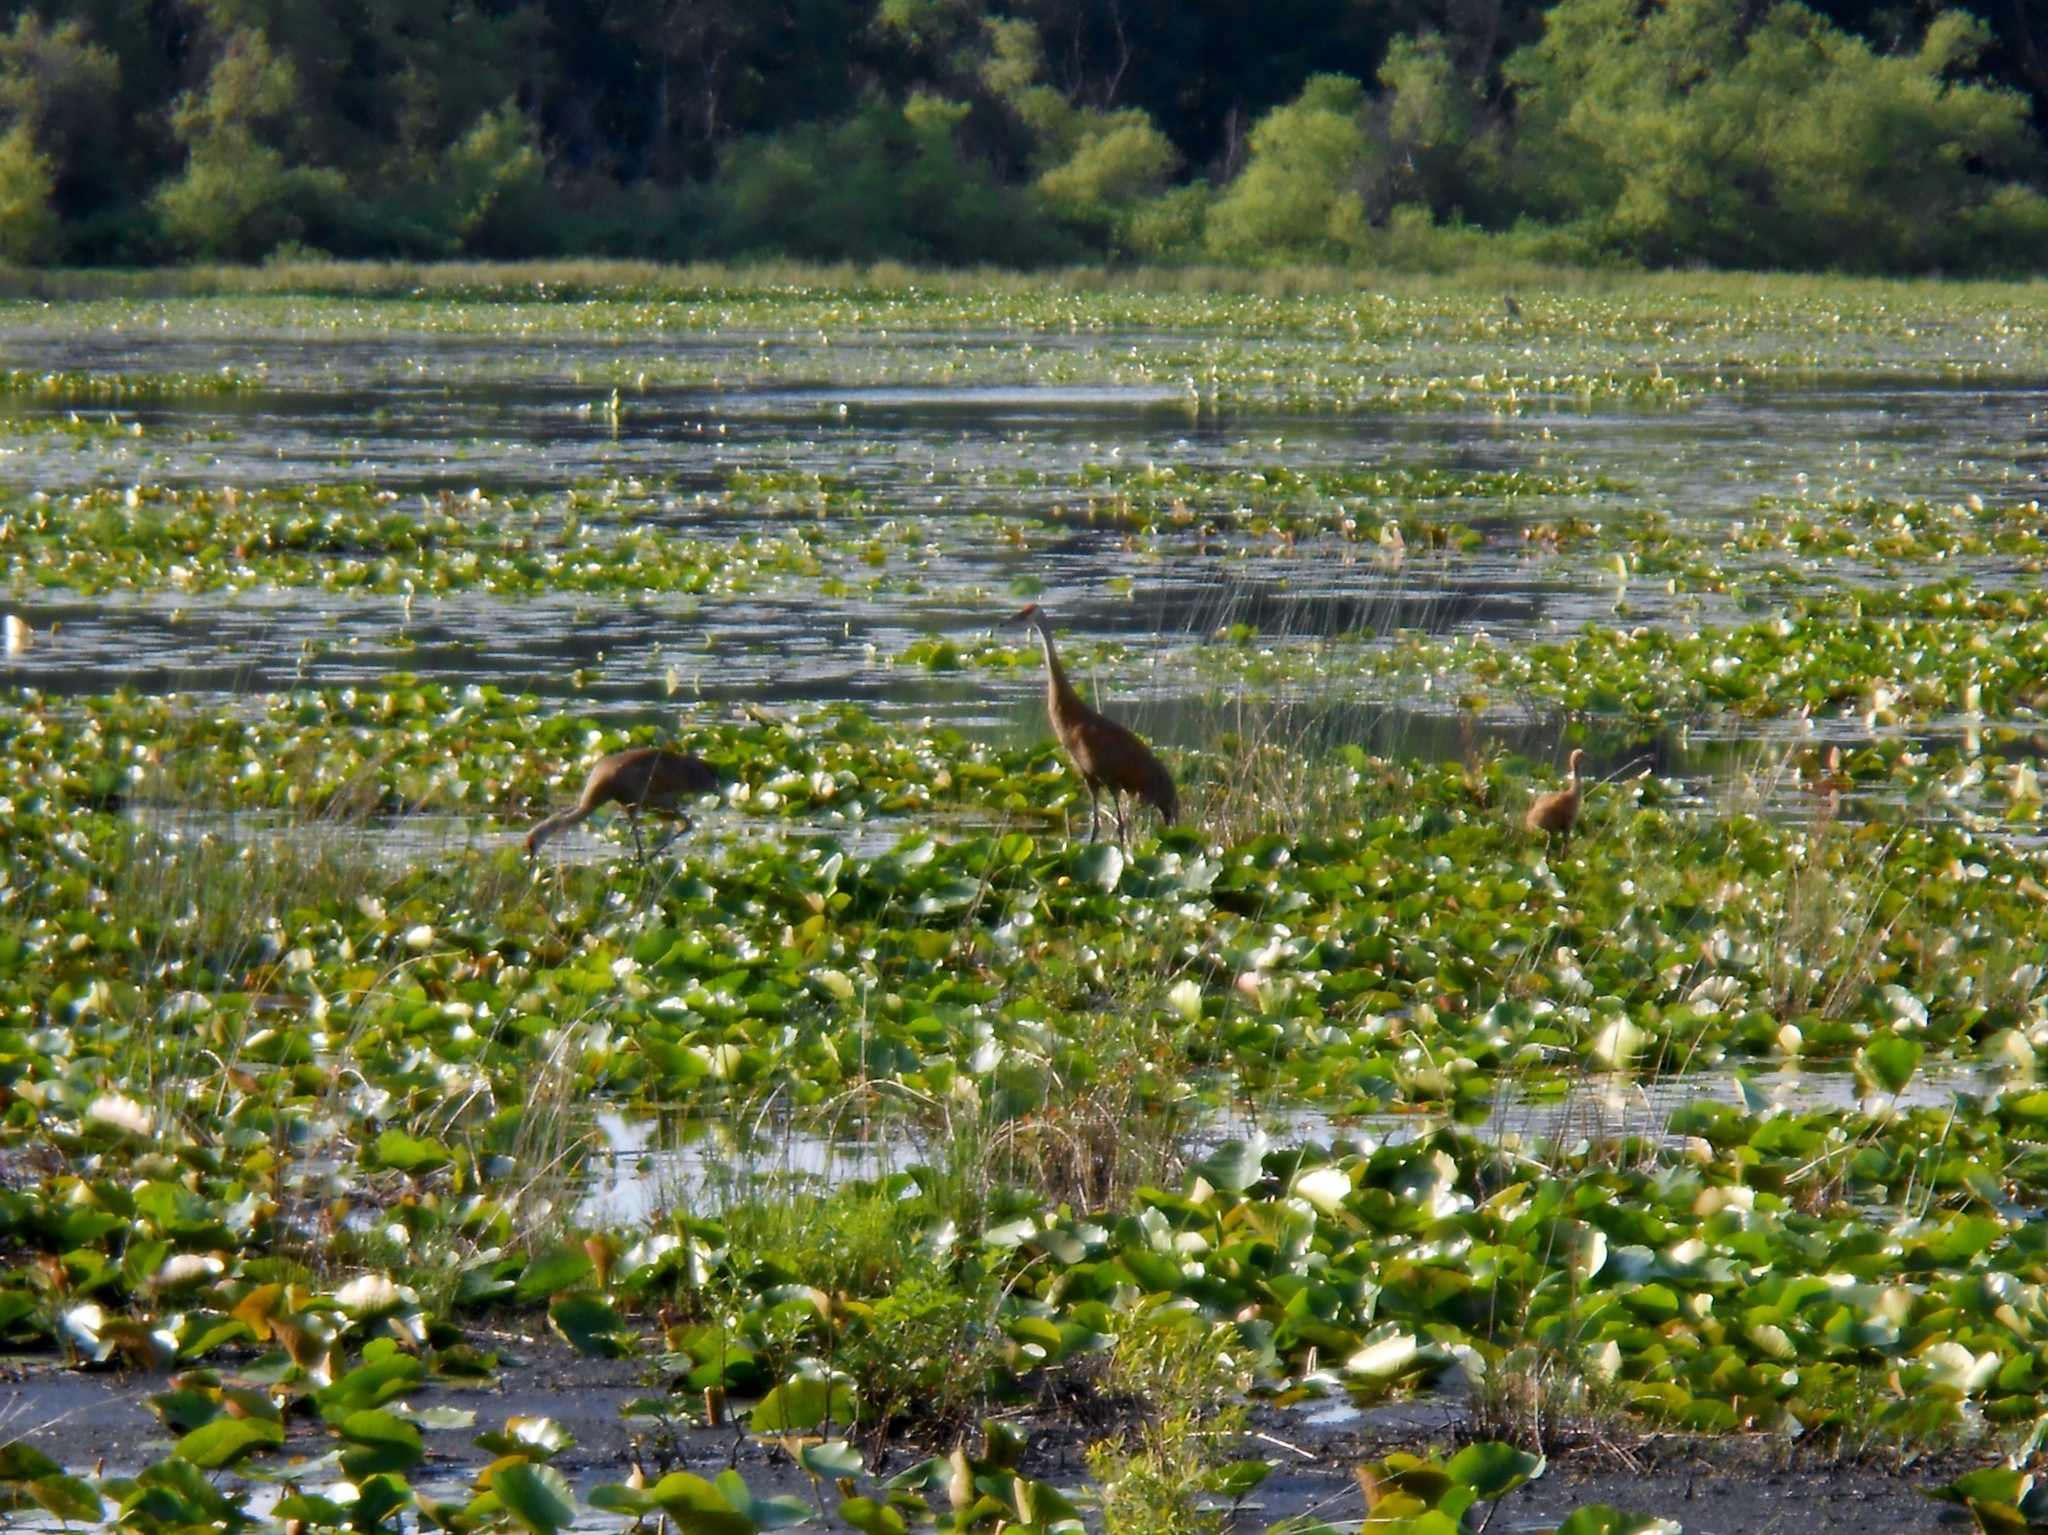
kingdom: Animalia
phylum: Chordata
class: Aves
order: Gruiformes
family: Gruidae
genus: Grus
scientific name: Grus canadensis
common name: Sandhill crane
